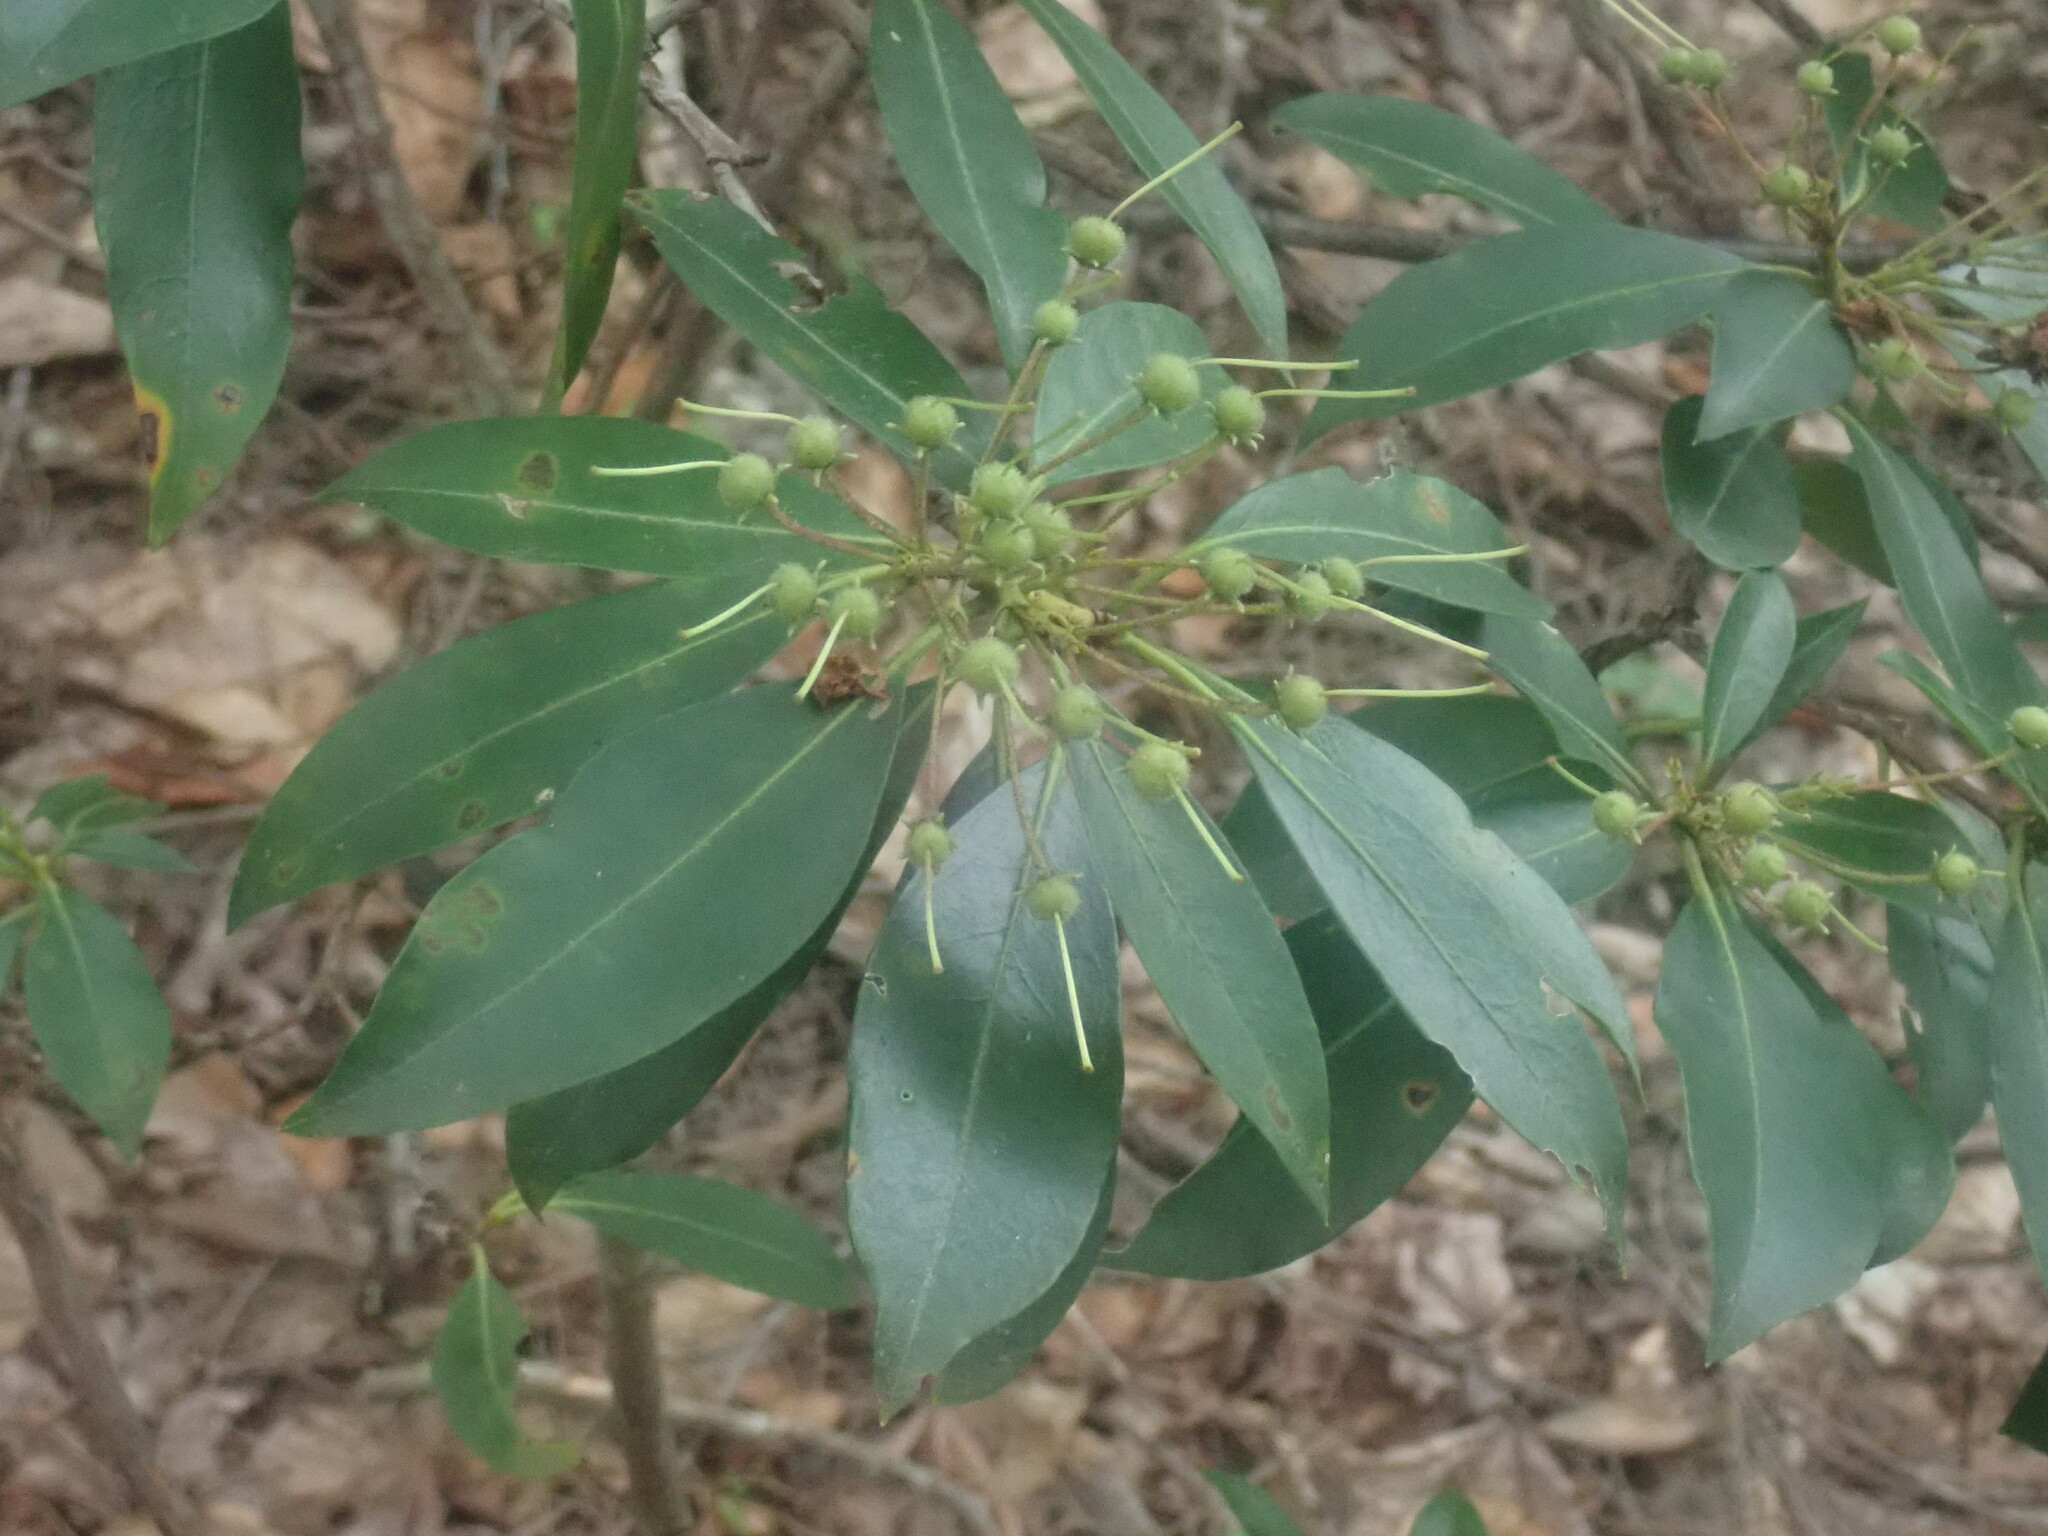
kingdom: Plantae
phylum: Tracheophyta
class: Magnoliopsida
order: Ericales
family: Ericaceae
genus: Kalmia
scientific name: Kalmia latifolia
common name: Mountain-laurel
